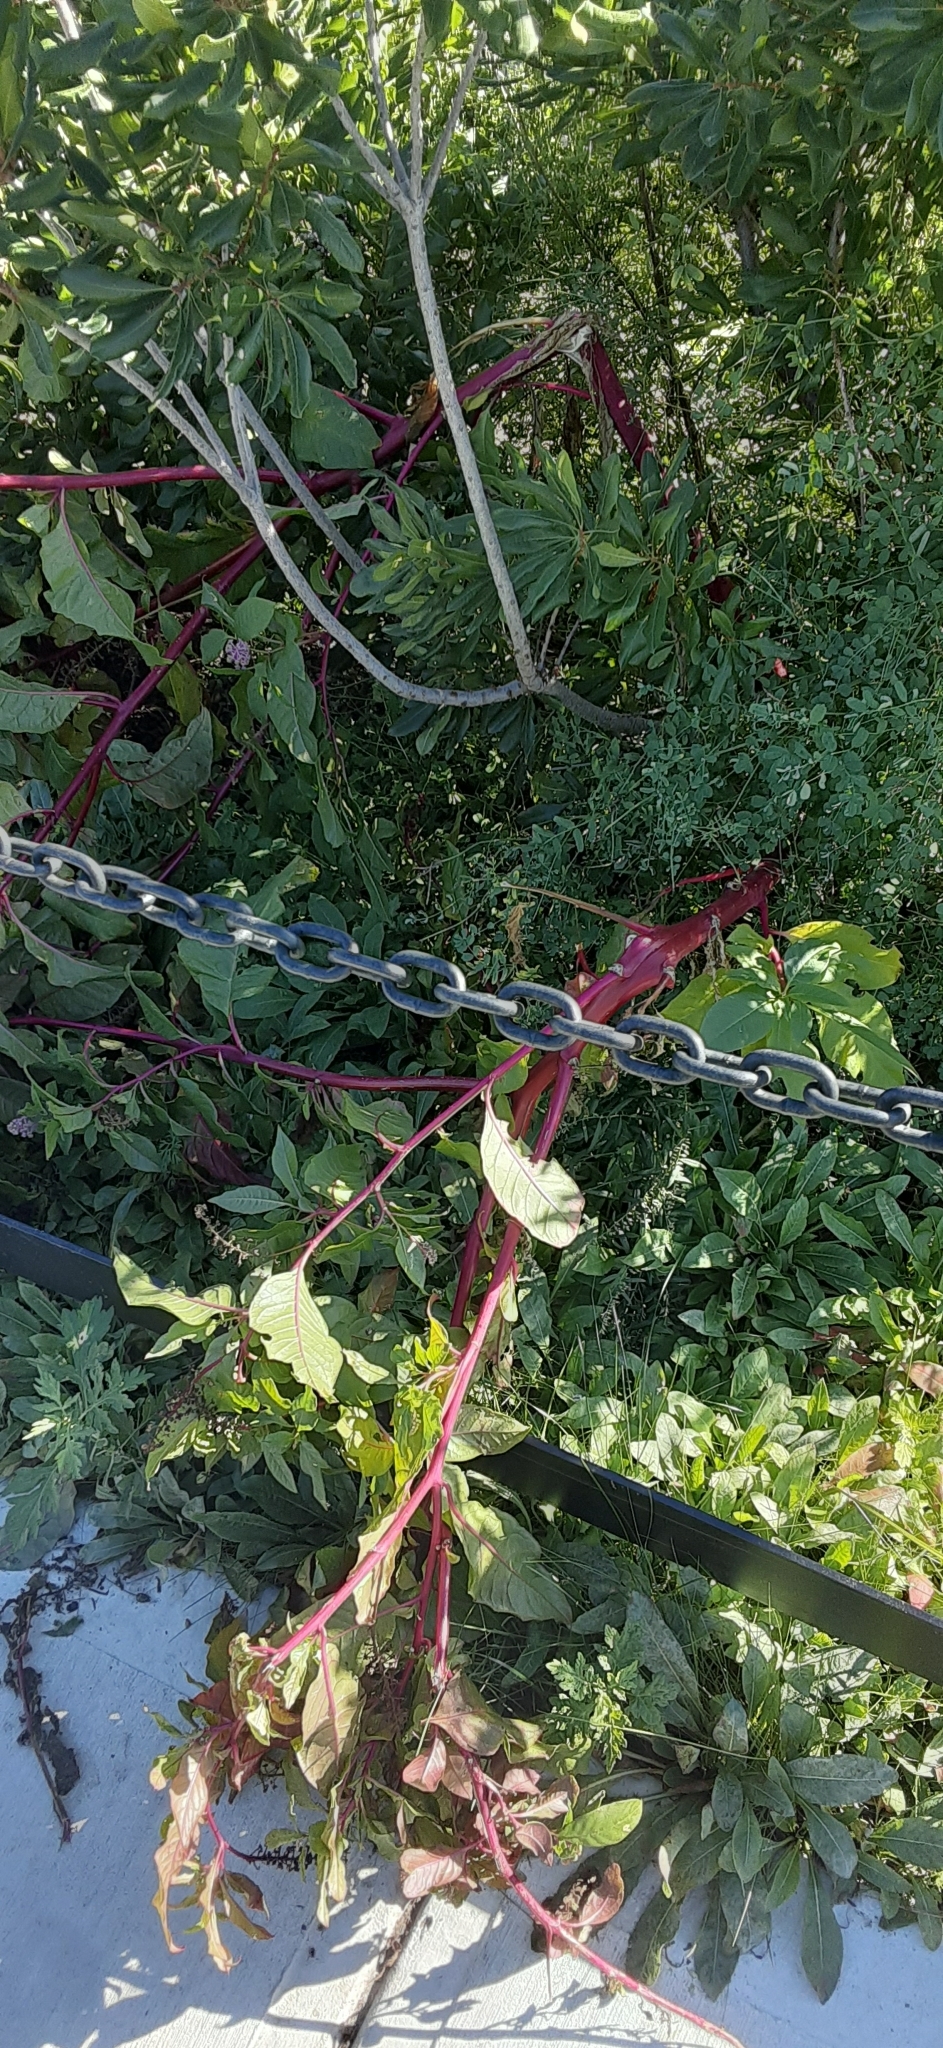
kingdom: Plantae
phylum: Tracheophyta
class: Magnoliopsida
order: Caryophyllales
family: Phytolaccaceae
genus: Phytolacca
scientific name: Phytolacca americana
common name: American pokeweed
